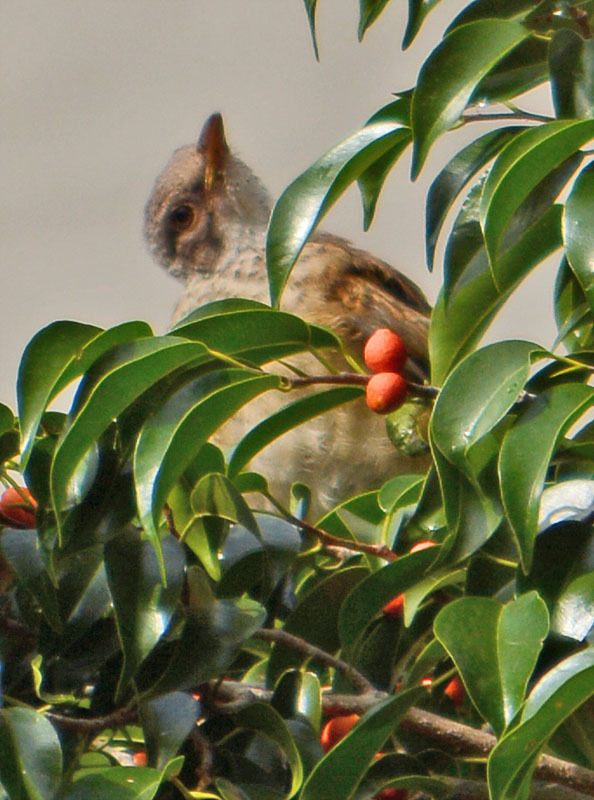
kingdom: Animalia
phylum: Chordata
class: Aves
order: Passeriformes
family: Turdidae
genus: Turdus
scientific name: Turdus rufopalliatus
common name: Rufous-backed robin
